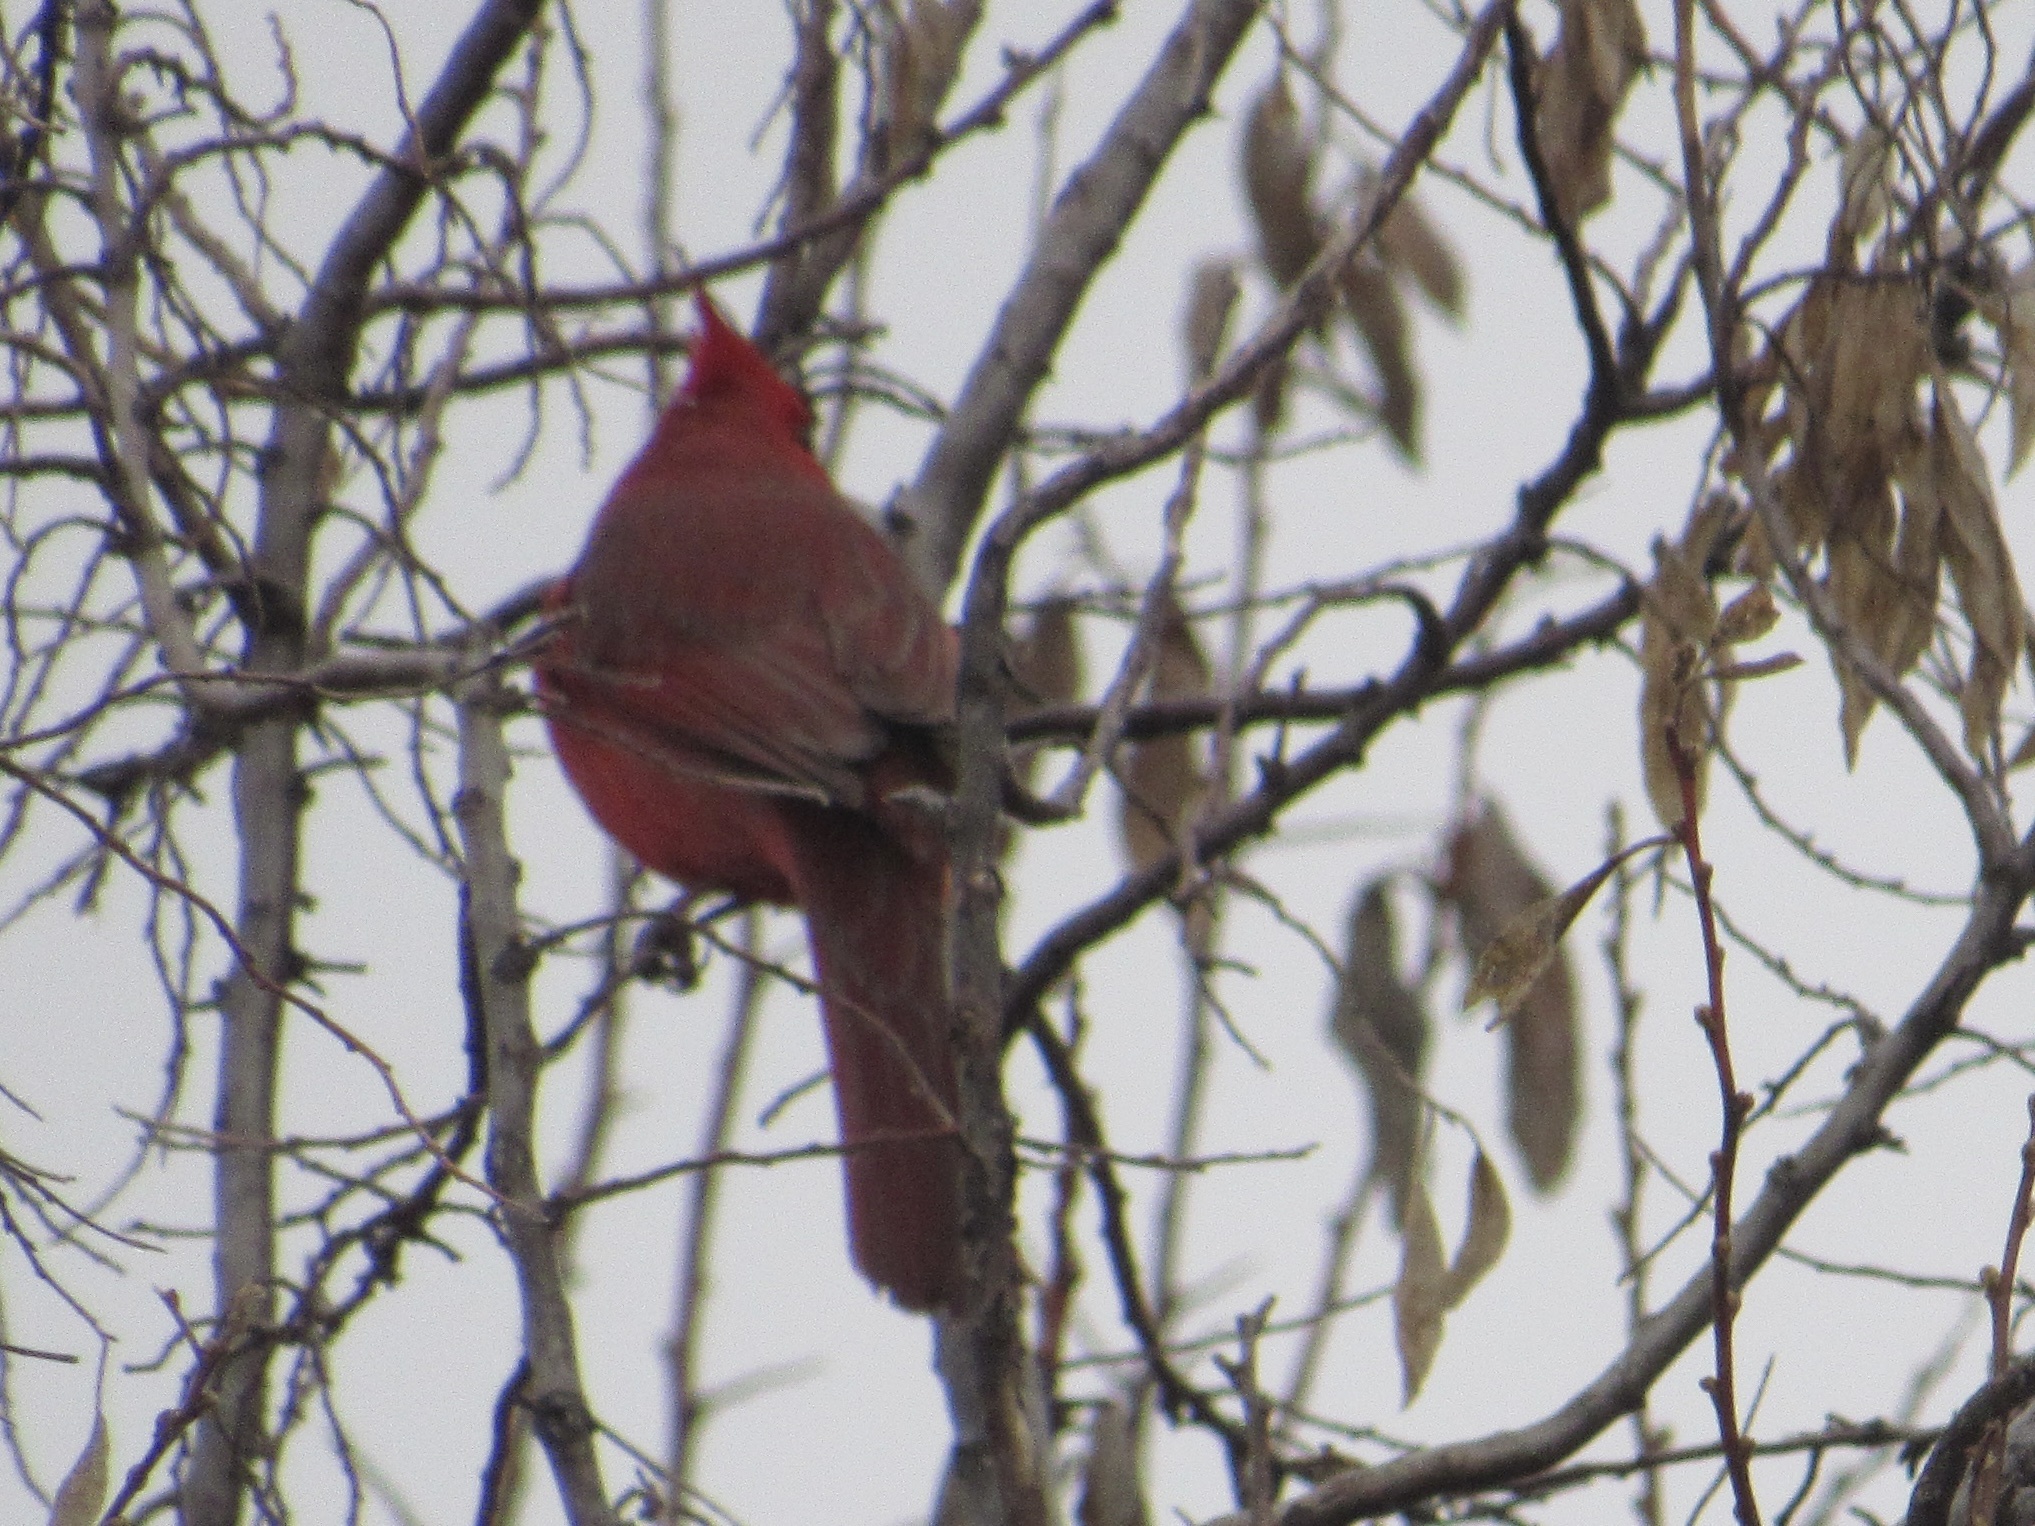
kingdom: Animalia
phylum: Chordata
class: Aves
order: Passeriformes
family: Cardinalidae
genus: Cardinalis
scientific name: Cardinalis cardinalis
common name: Northern cardinal
